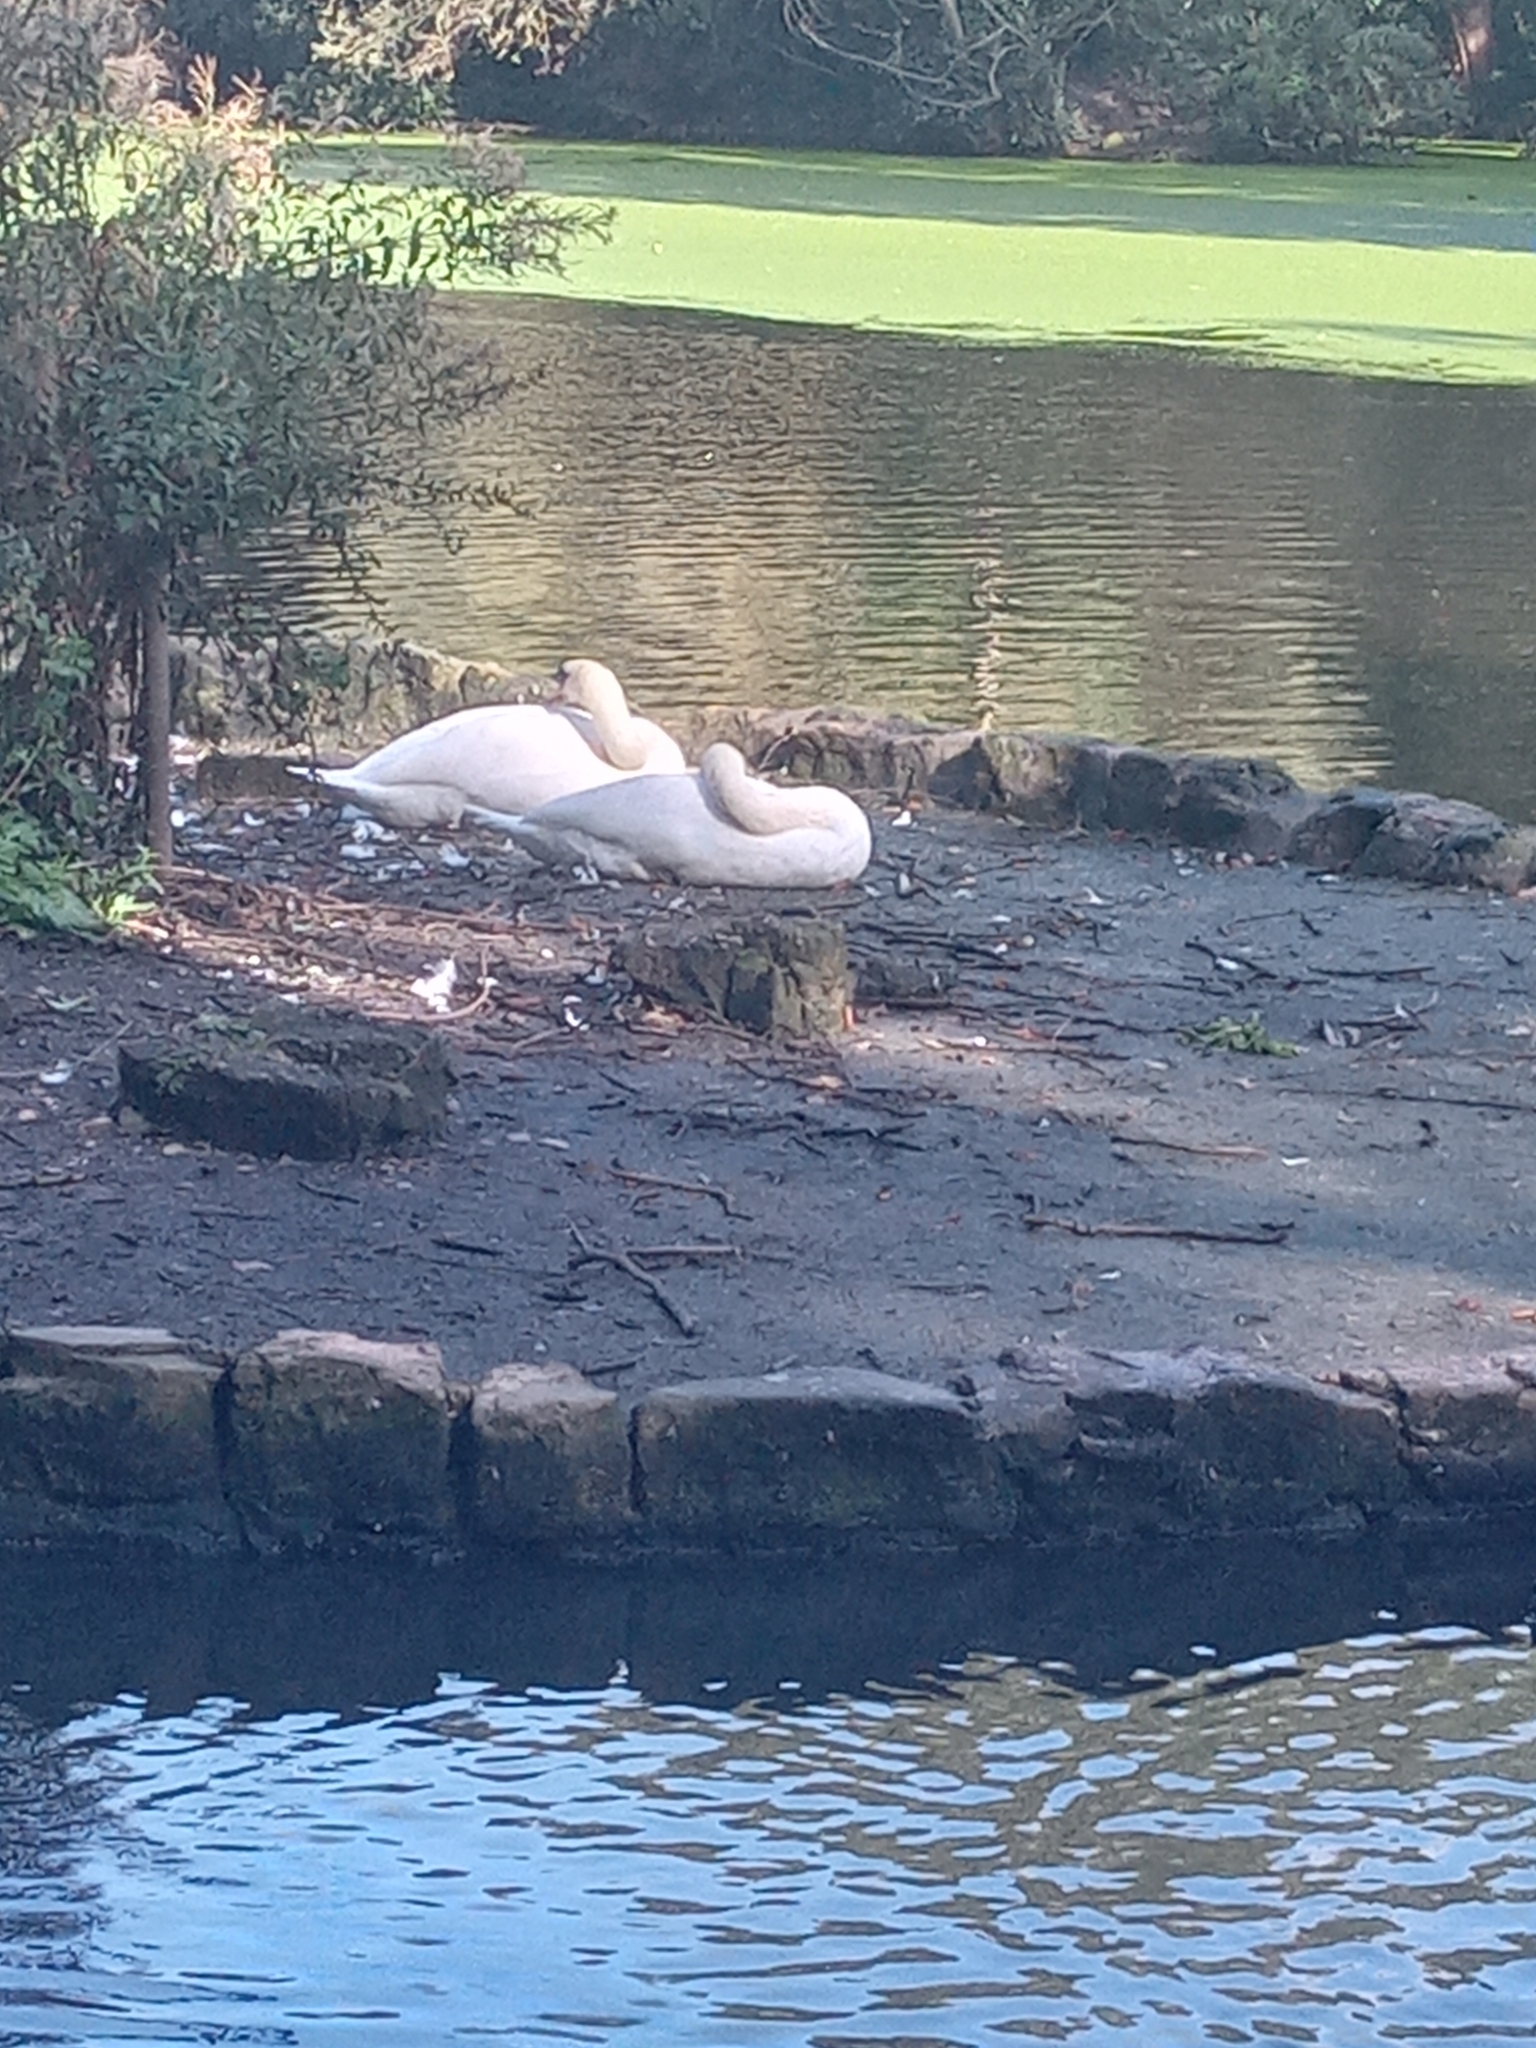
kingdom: Animalia
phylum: Chordata
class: Aves
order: Anseriformes
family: Anatidae
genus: Cygnus
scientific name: Cygnus olor
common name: Mute swan
